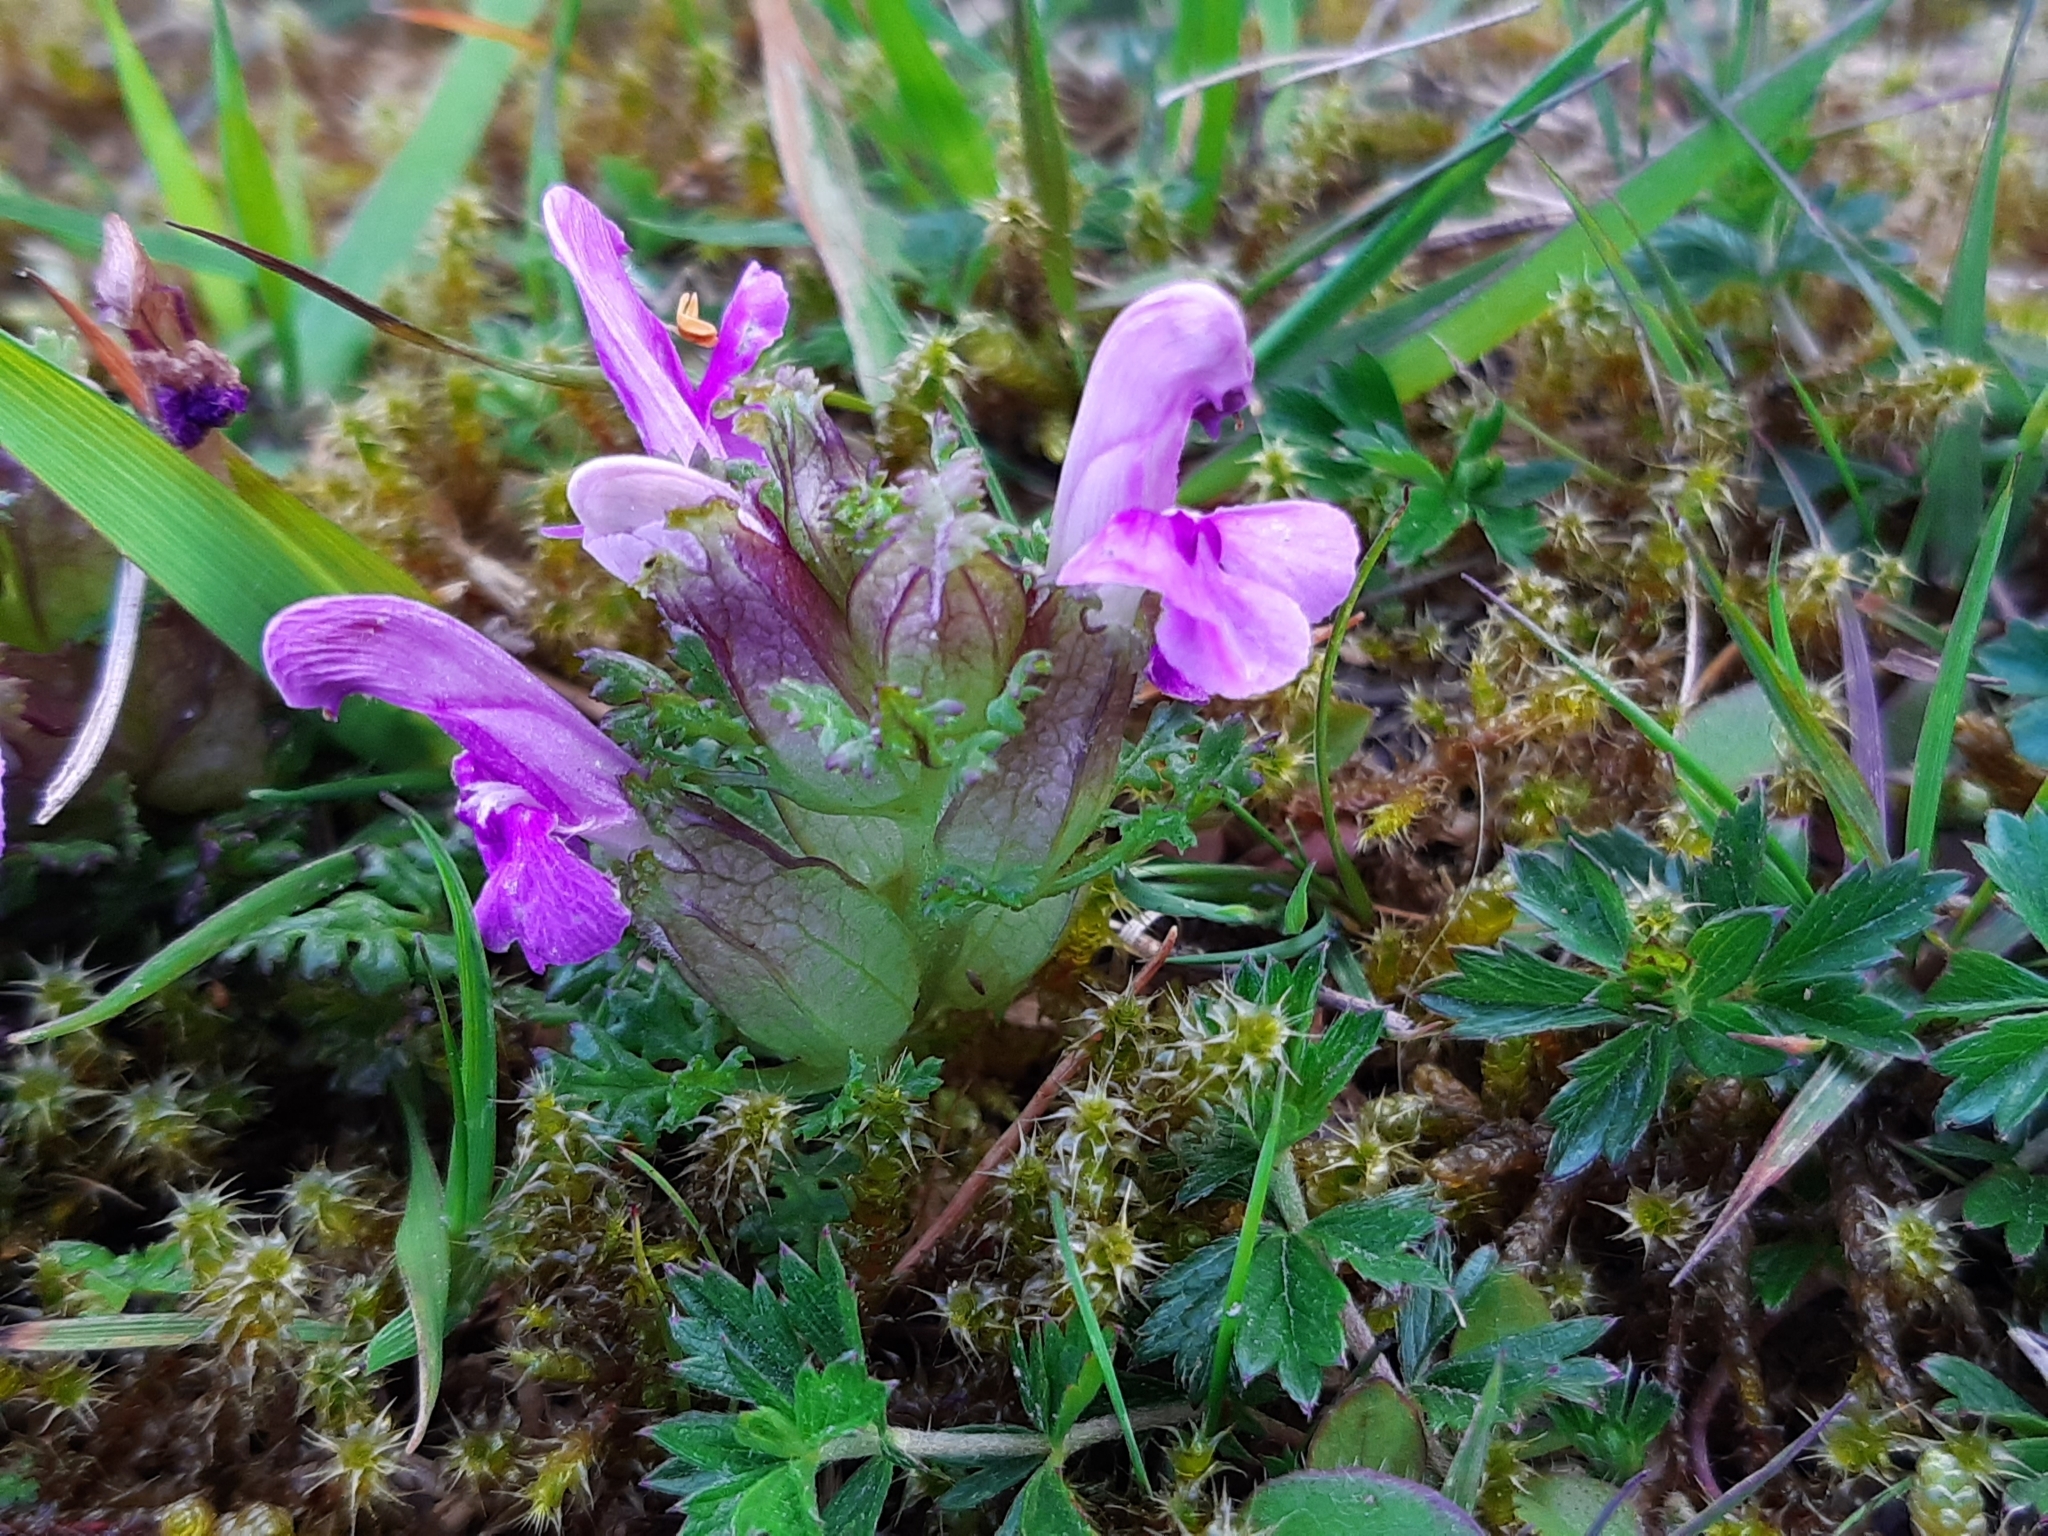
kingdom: Plantae
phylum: Tracheophyta
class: Magnoliopsida
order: Lamiales
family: Orobanchaceae
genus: Pedicularis
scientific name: Pedicularis sylvatica
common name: Lousewort
